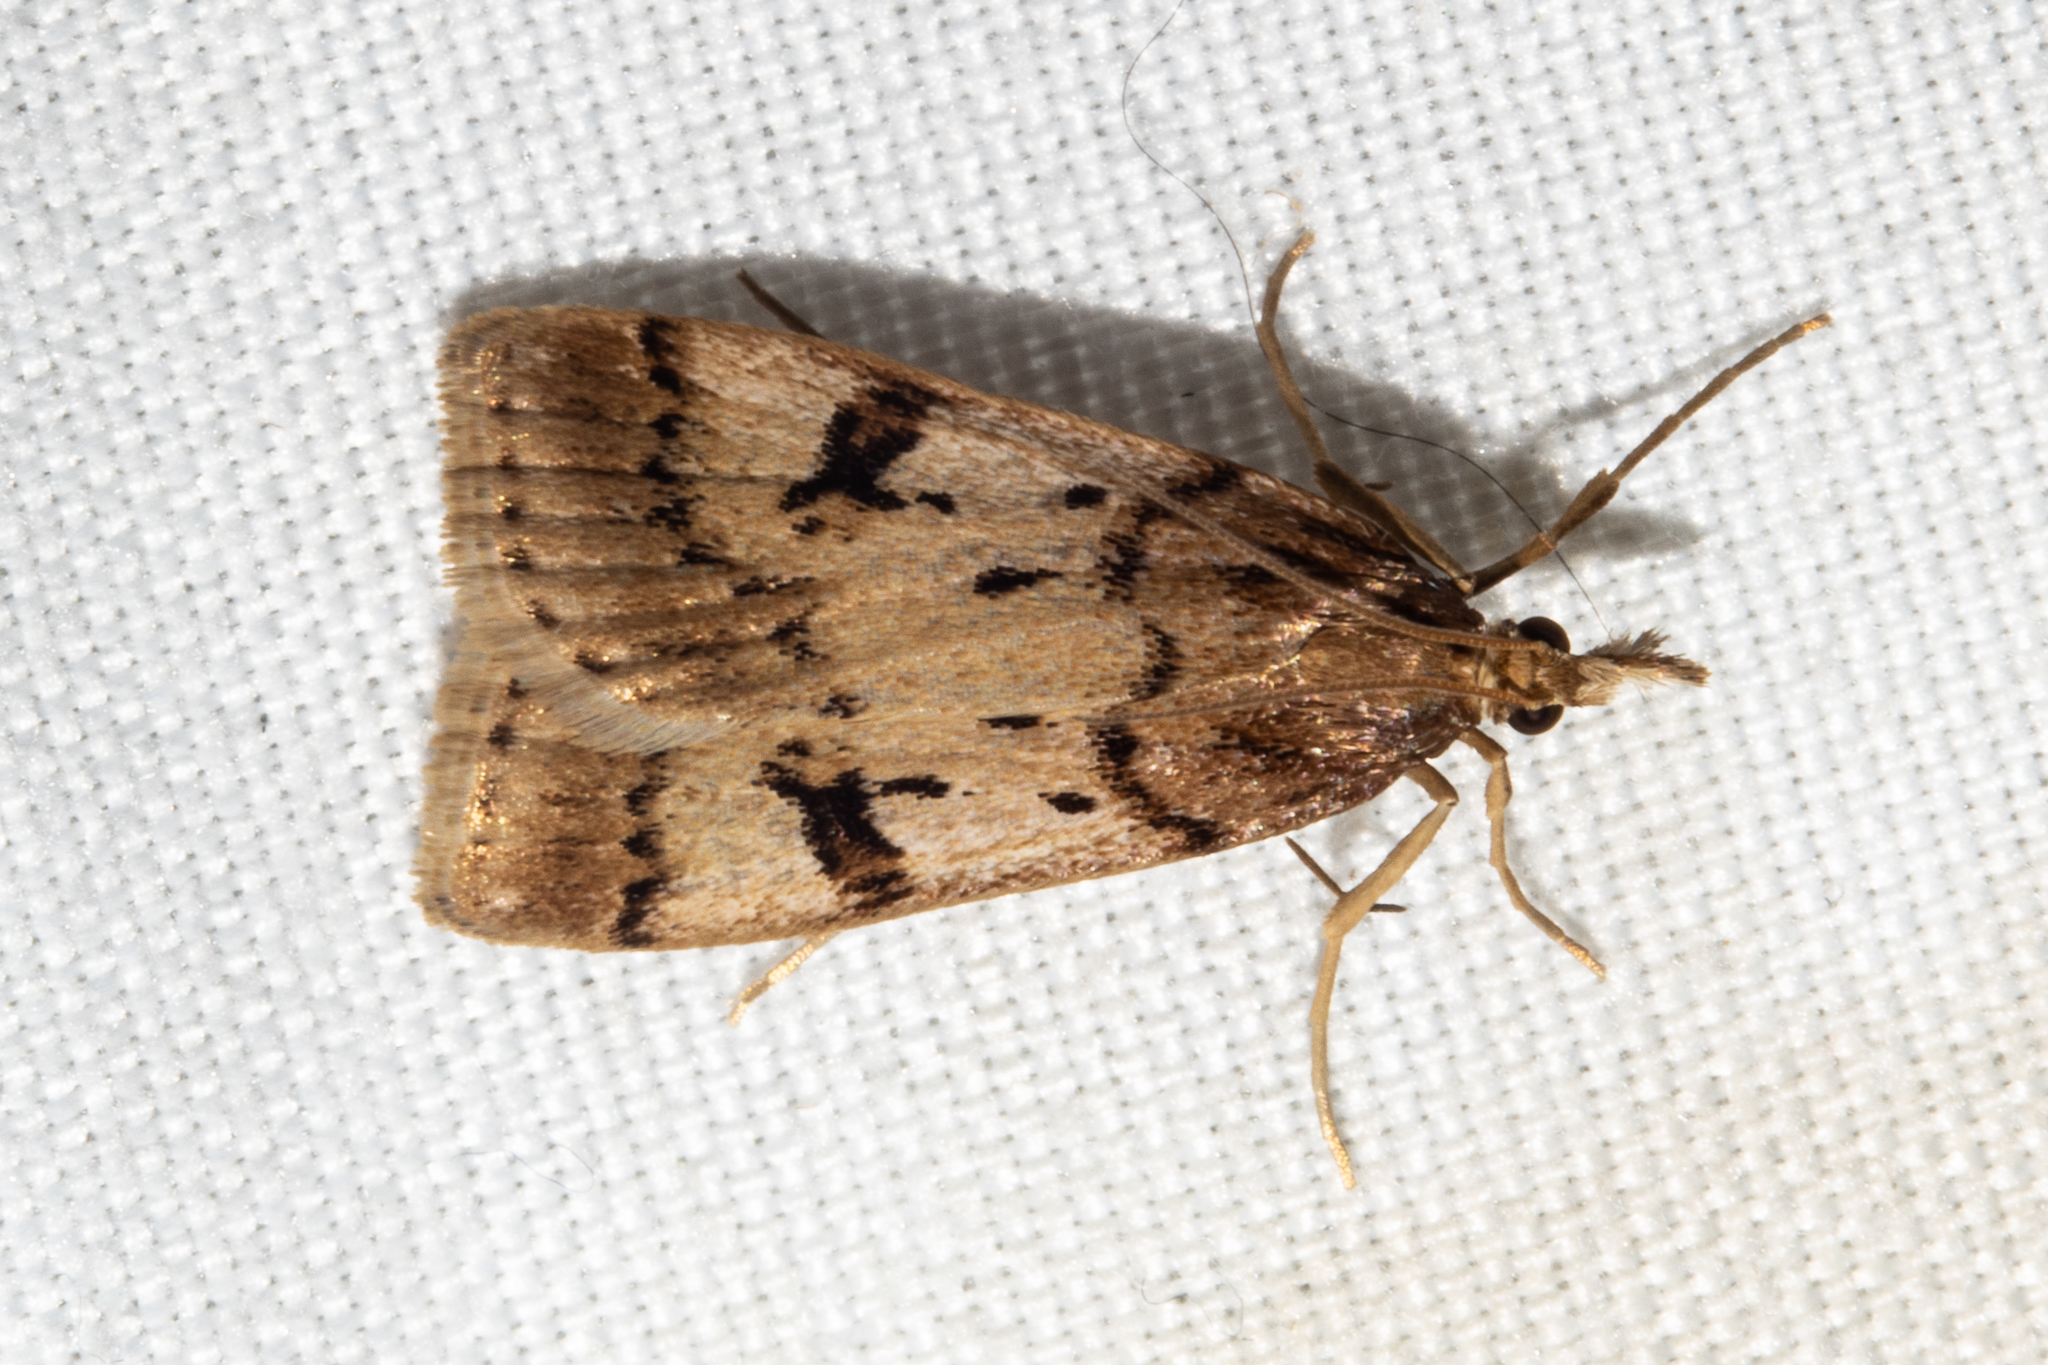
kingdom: Animalia
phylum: Arthropoda
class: Insecta
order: Lepidoptera
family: Crambidae
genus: Scoparia
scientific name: Scoparia fumata
